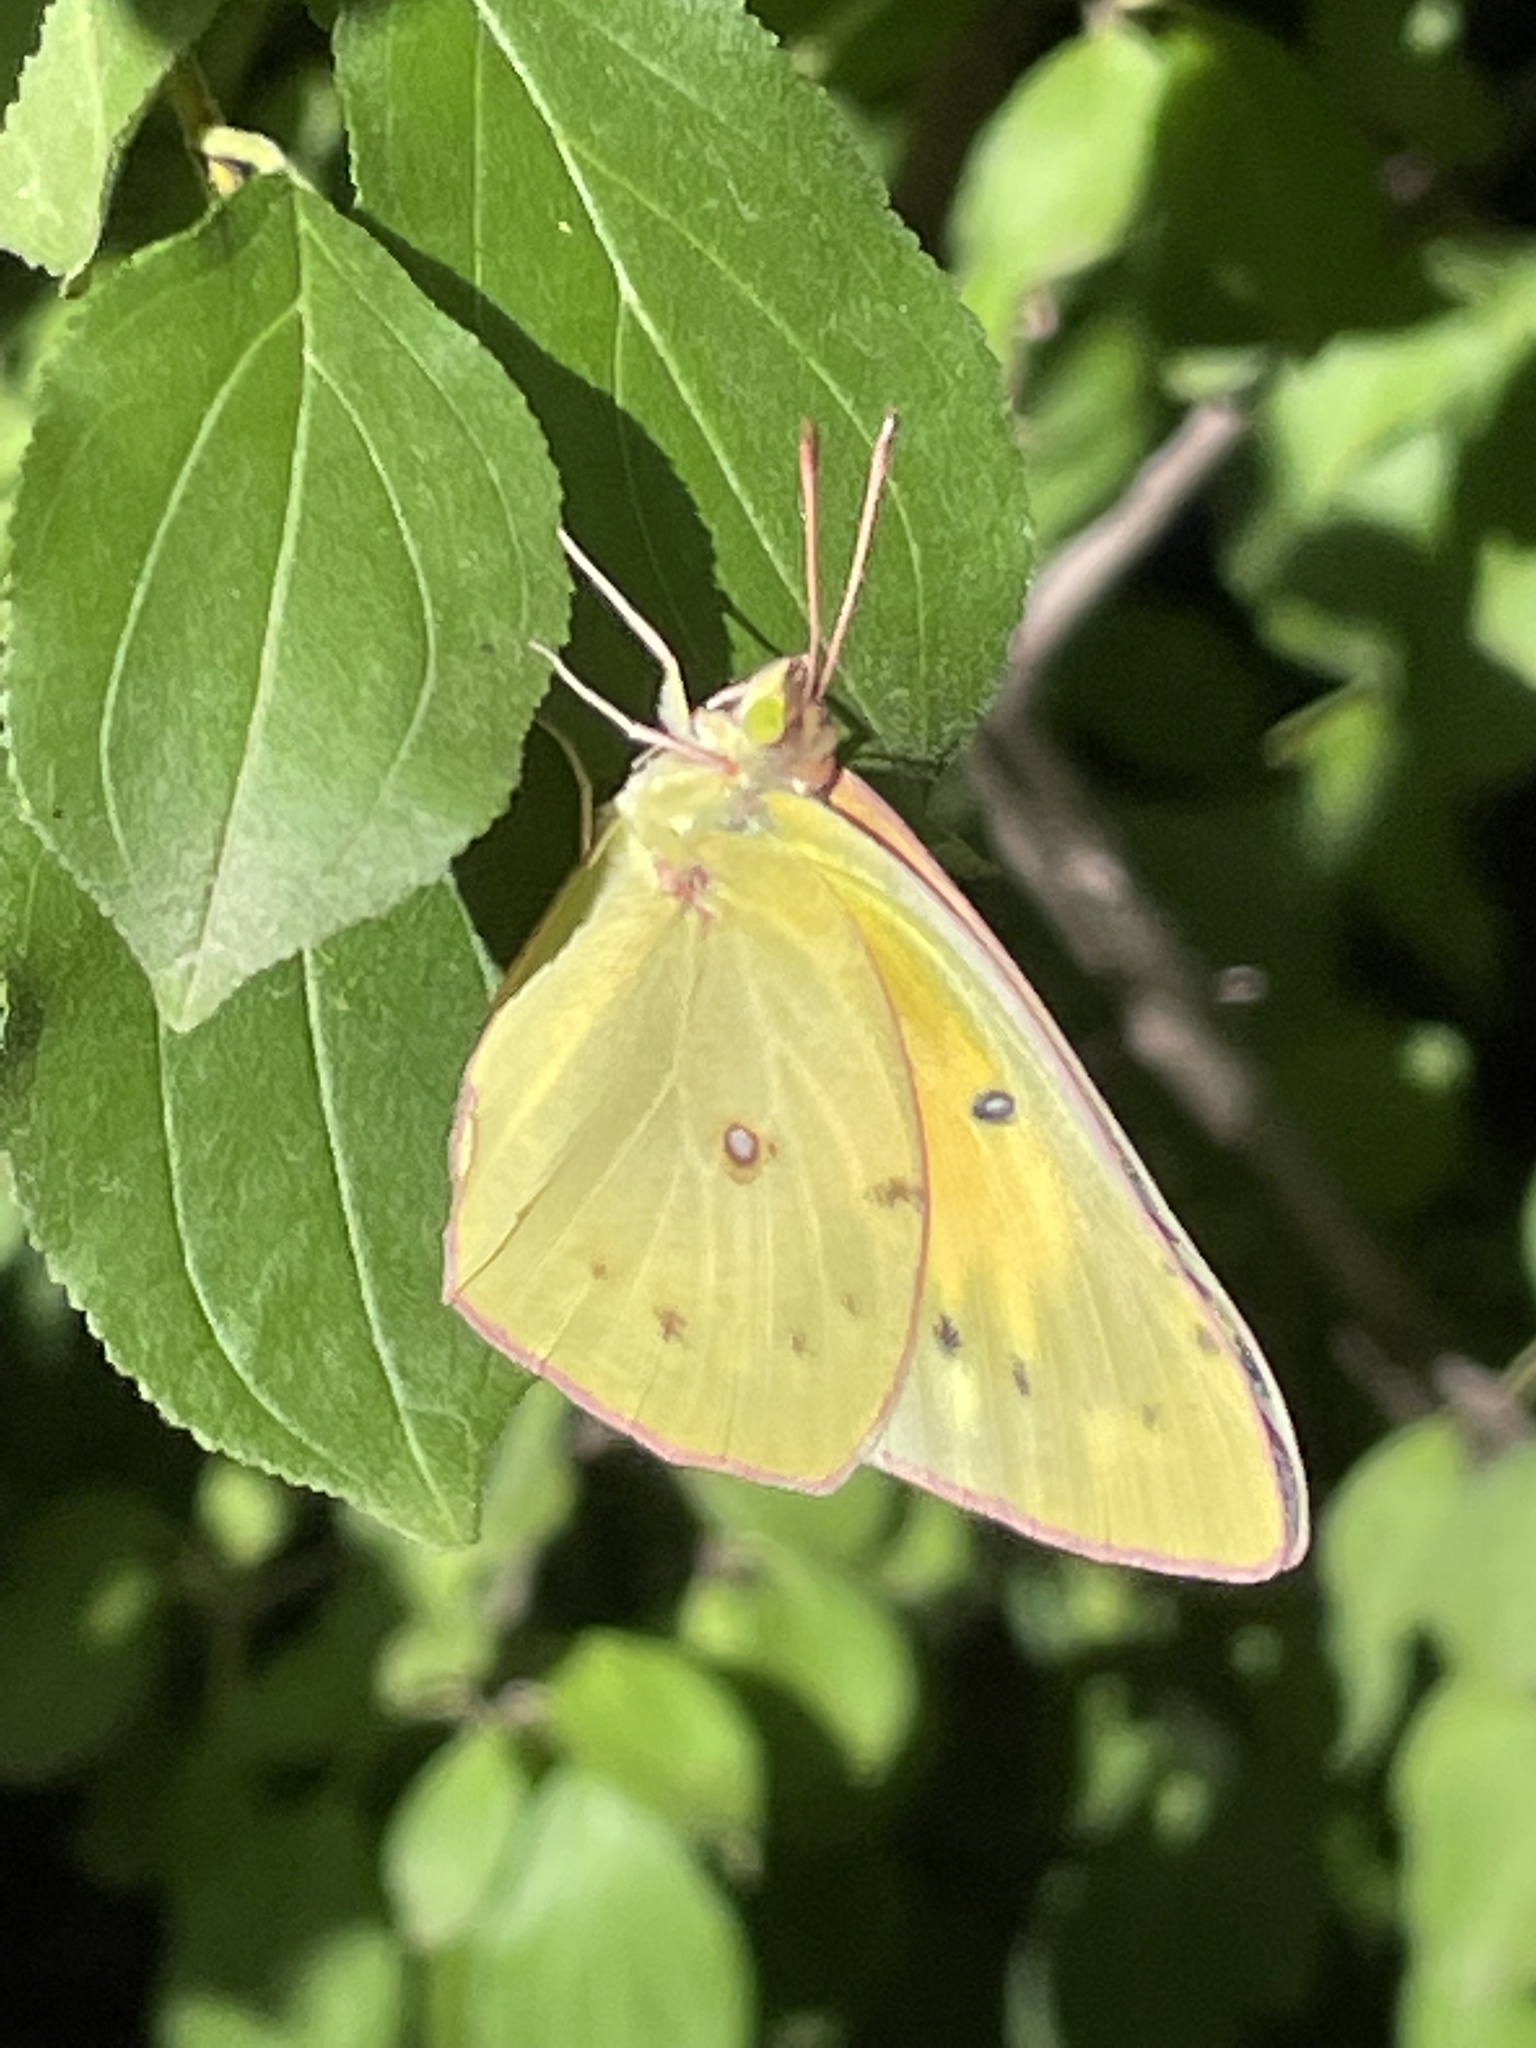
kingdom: Animalia
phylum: Arthropoda
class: Insecta
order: Lepidoptera
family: Pieridae
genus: Colias
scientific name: Colias eurytheme
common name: Alfalfa butterfly
